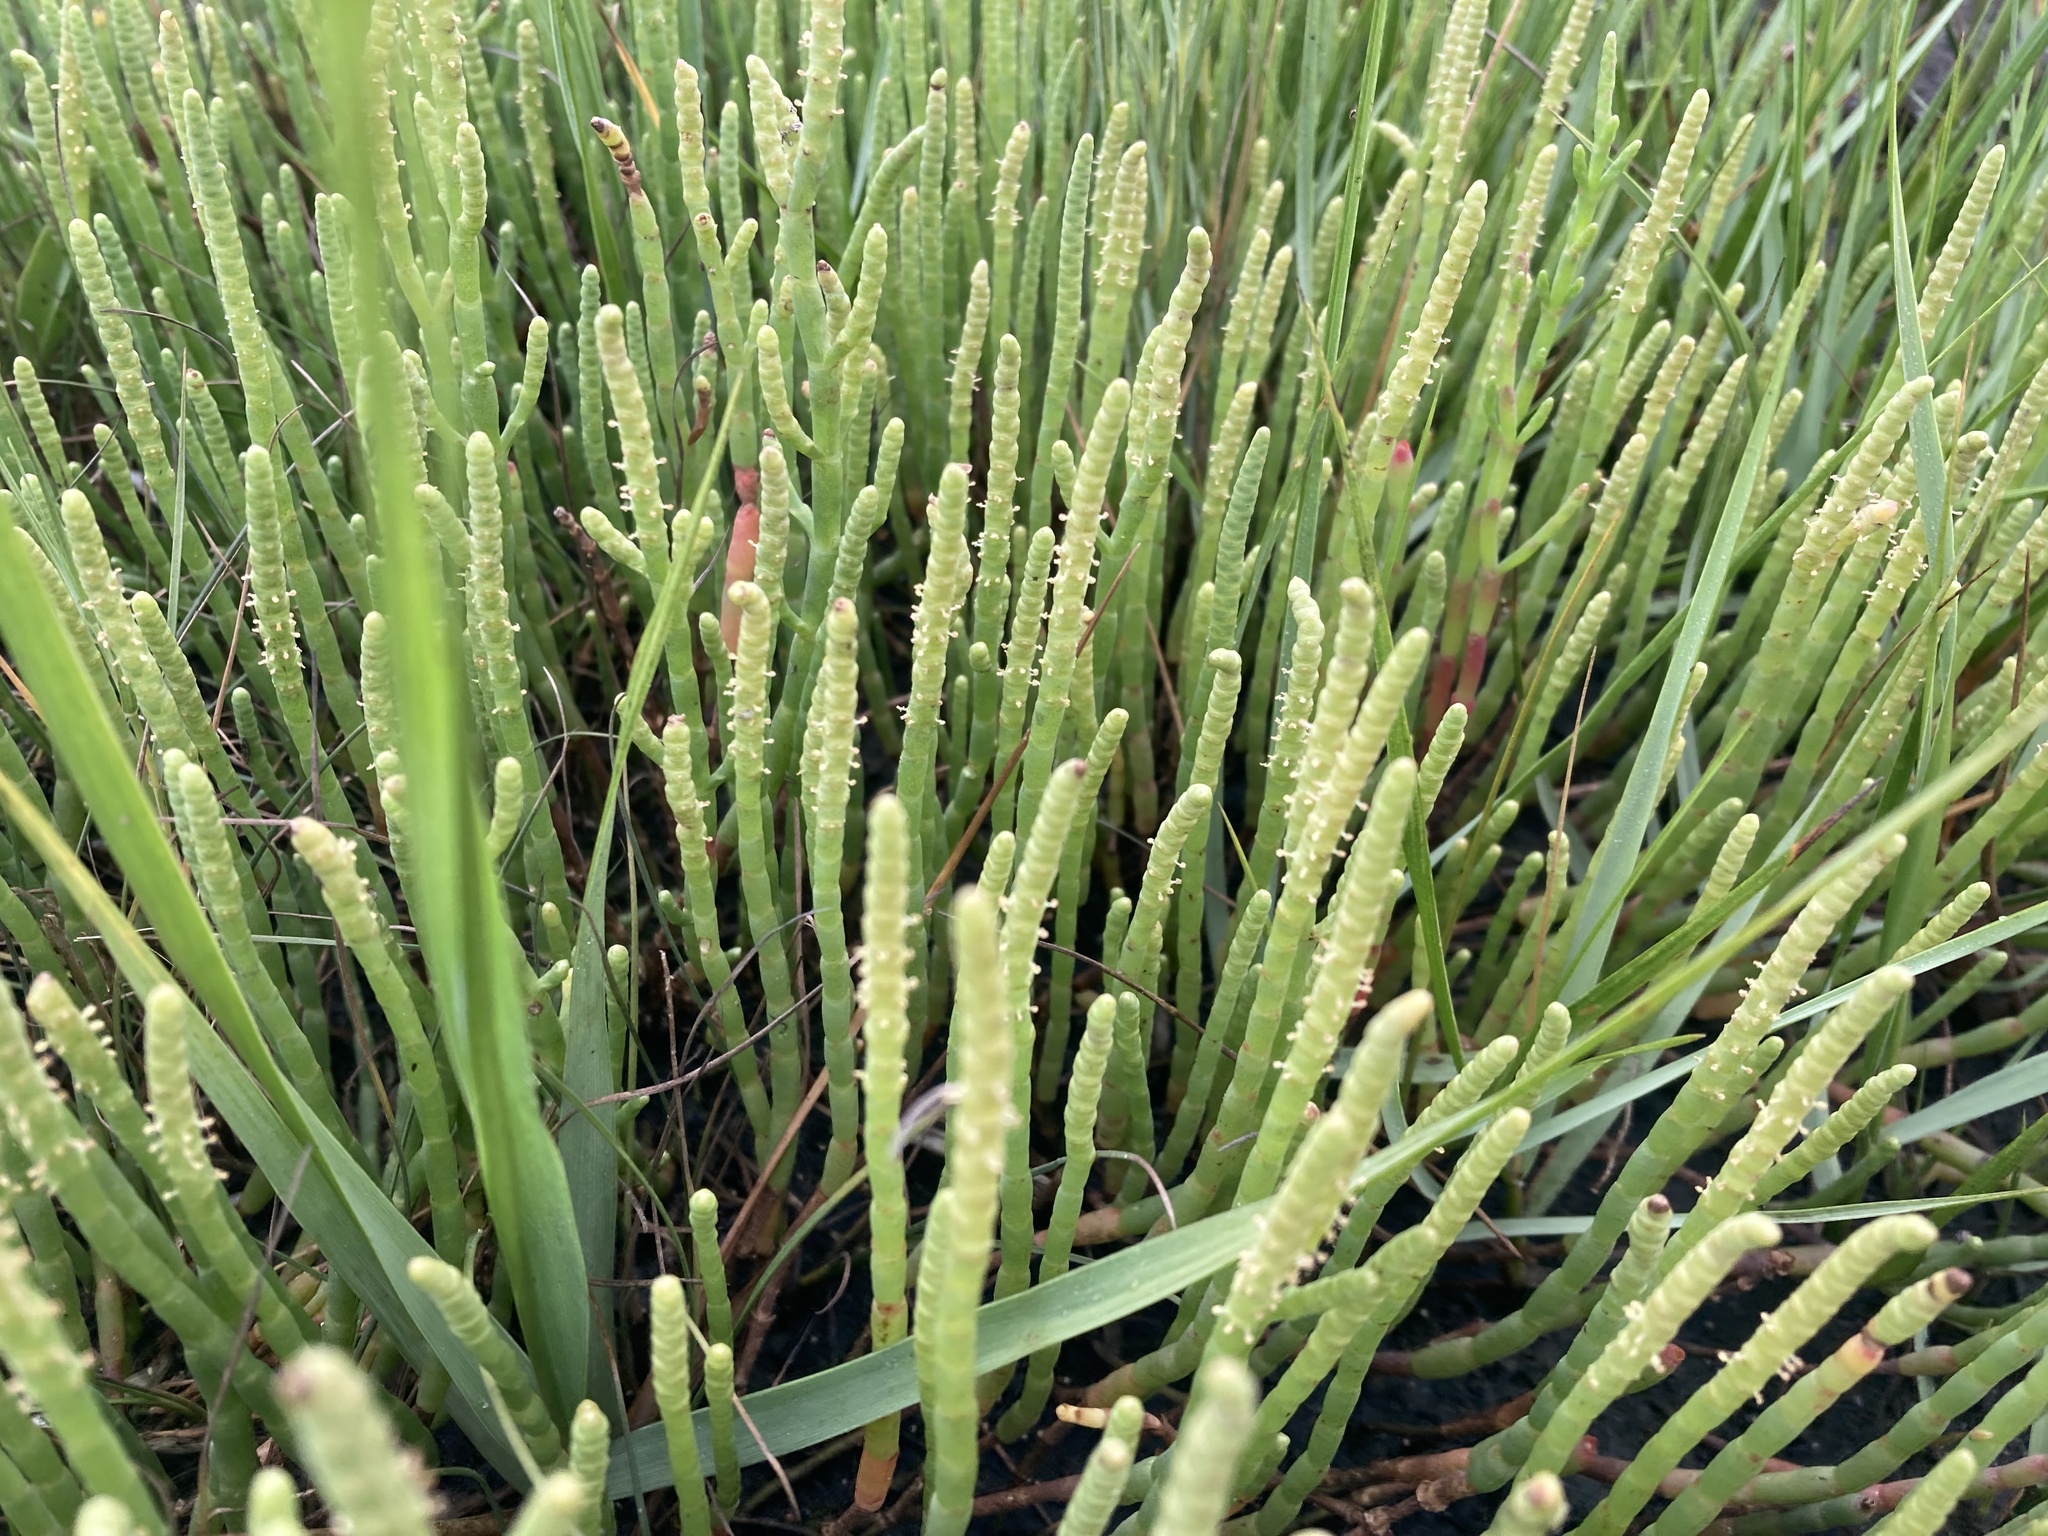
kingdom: Plantae
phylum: Tracheophyta
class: Magnoliopsida
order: Caryophyllales
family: Amaranthaceae
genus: Salicornia
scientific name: Salicornia perennis
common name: Chicken claws
